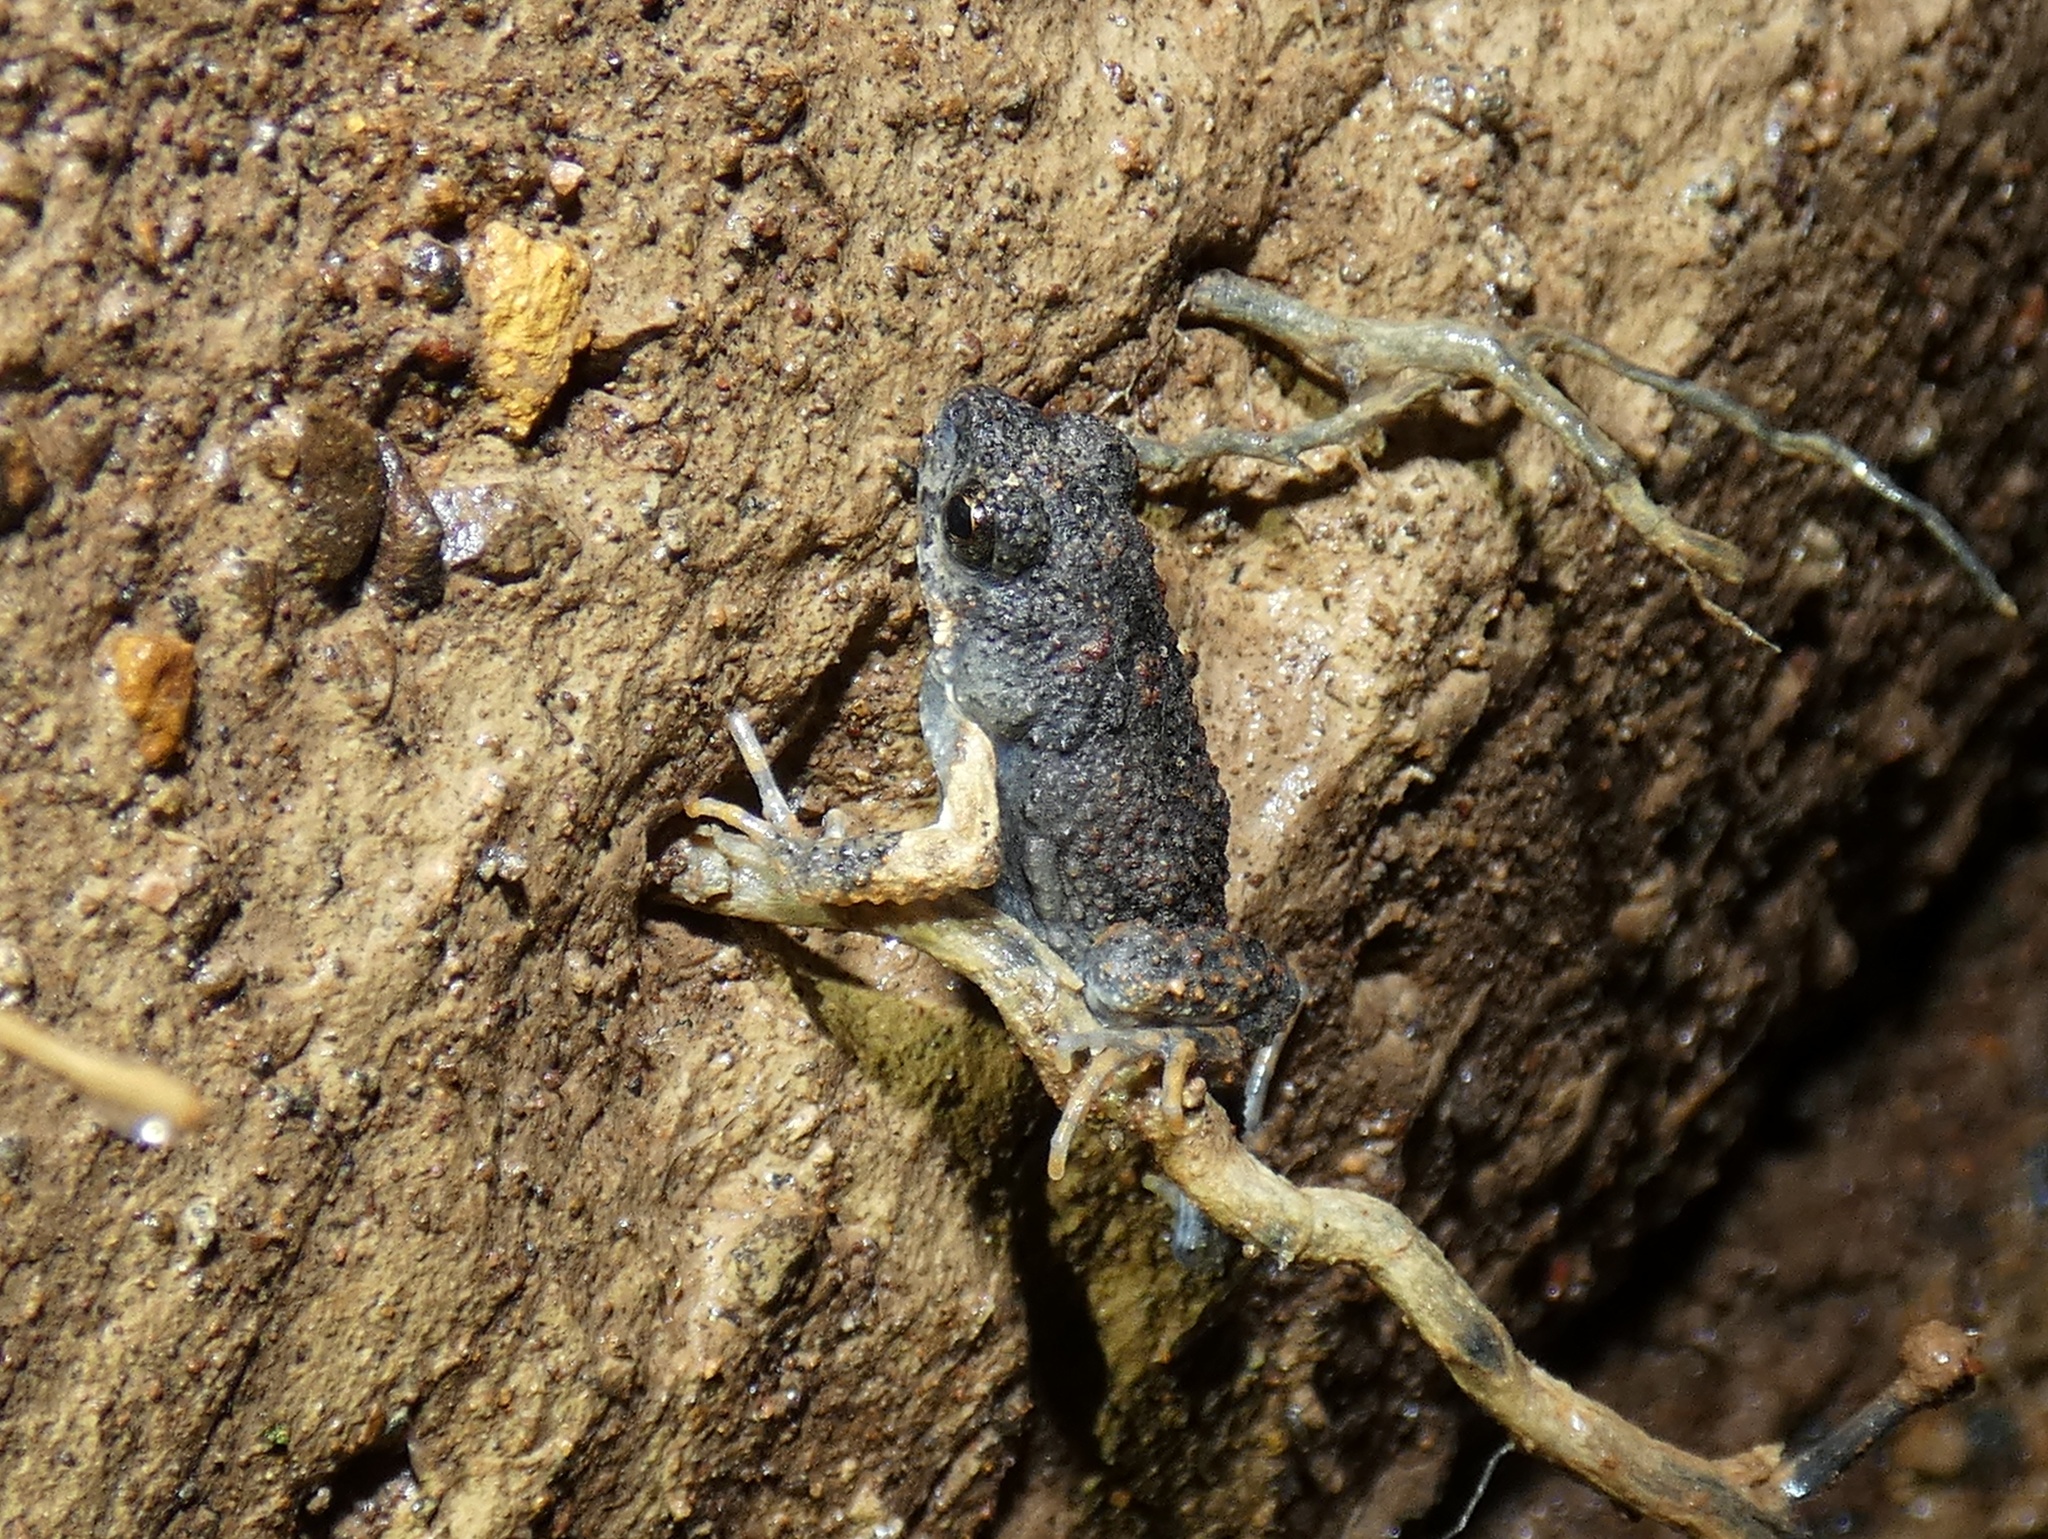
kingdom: Animalia
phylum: Chordata
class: Amphibia
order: Anura
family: Leptodactylidae
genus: Engystomops
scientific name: Engystomops pustulosus
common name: Tungara frog
